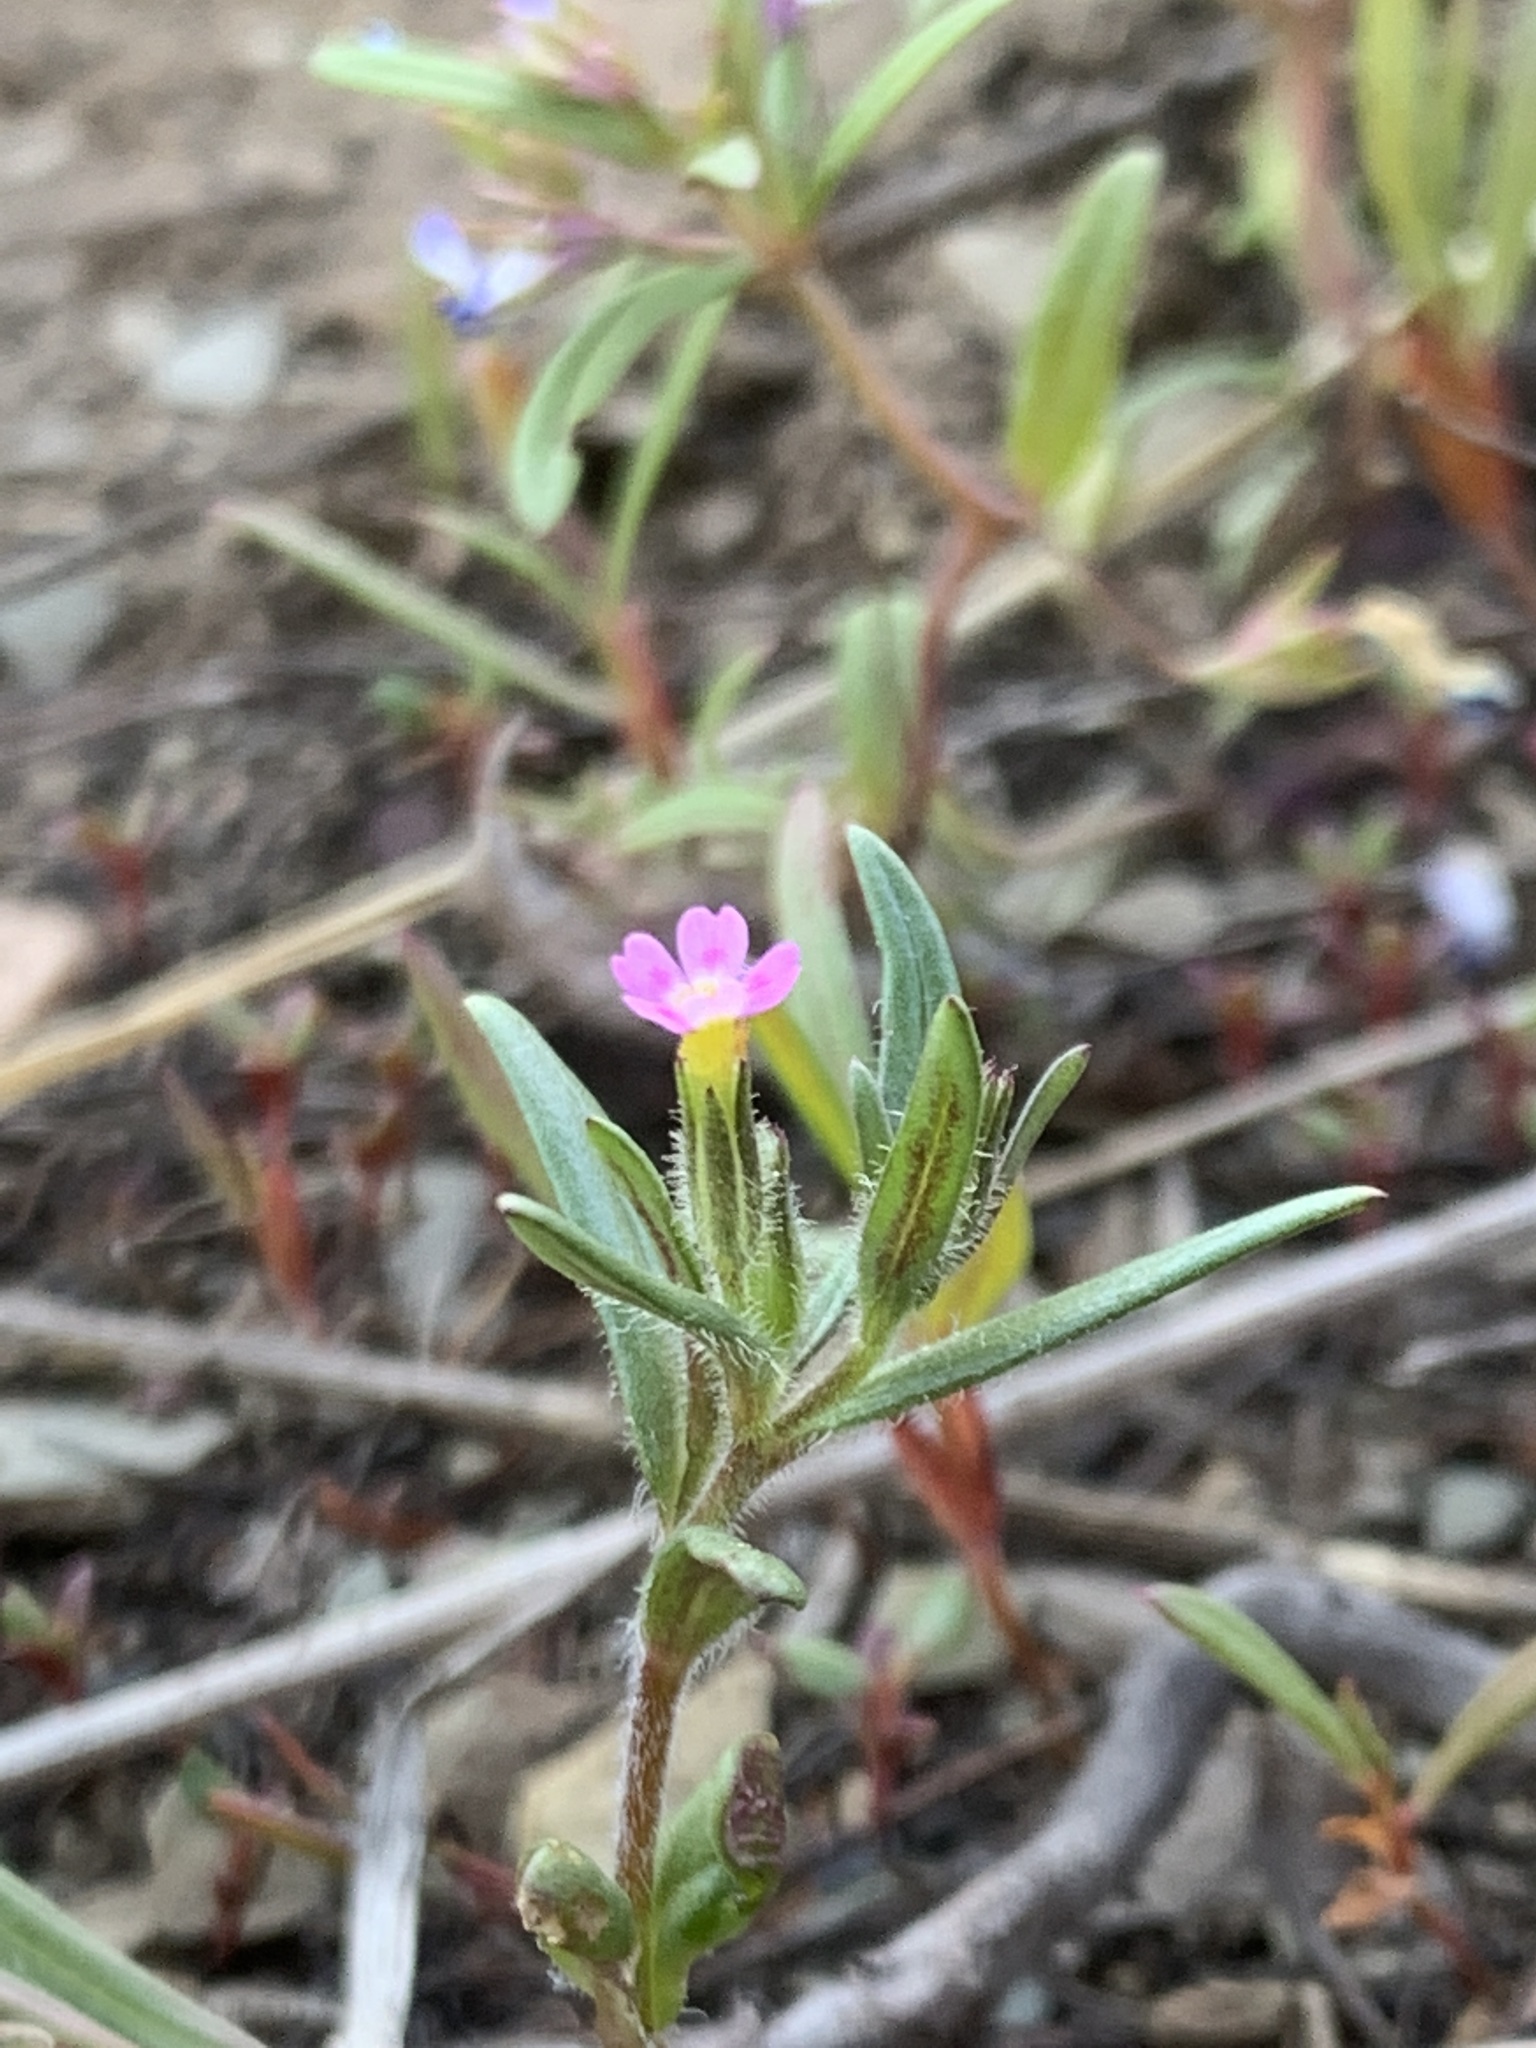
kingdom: Plantae
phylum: Tracheophyta
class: Magnoliopsida
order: Ericales
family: Polemoniaceae
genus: Phlox
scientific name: Phlox gracilis
